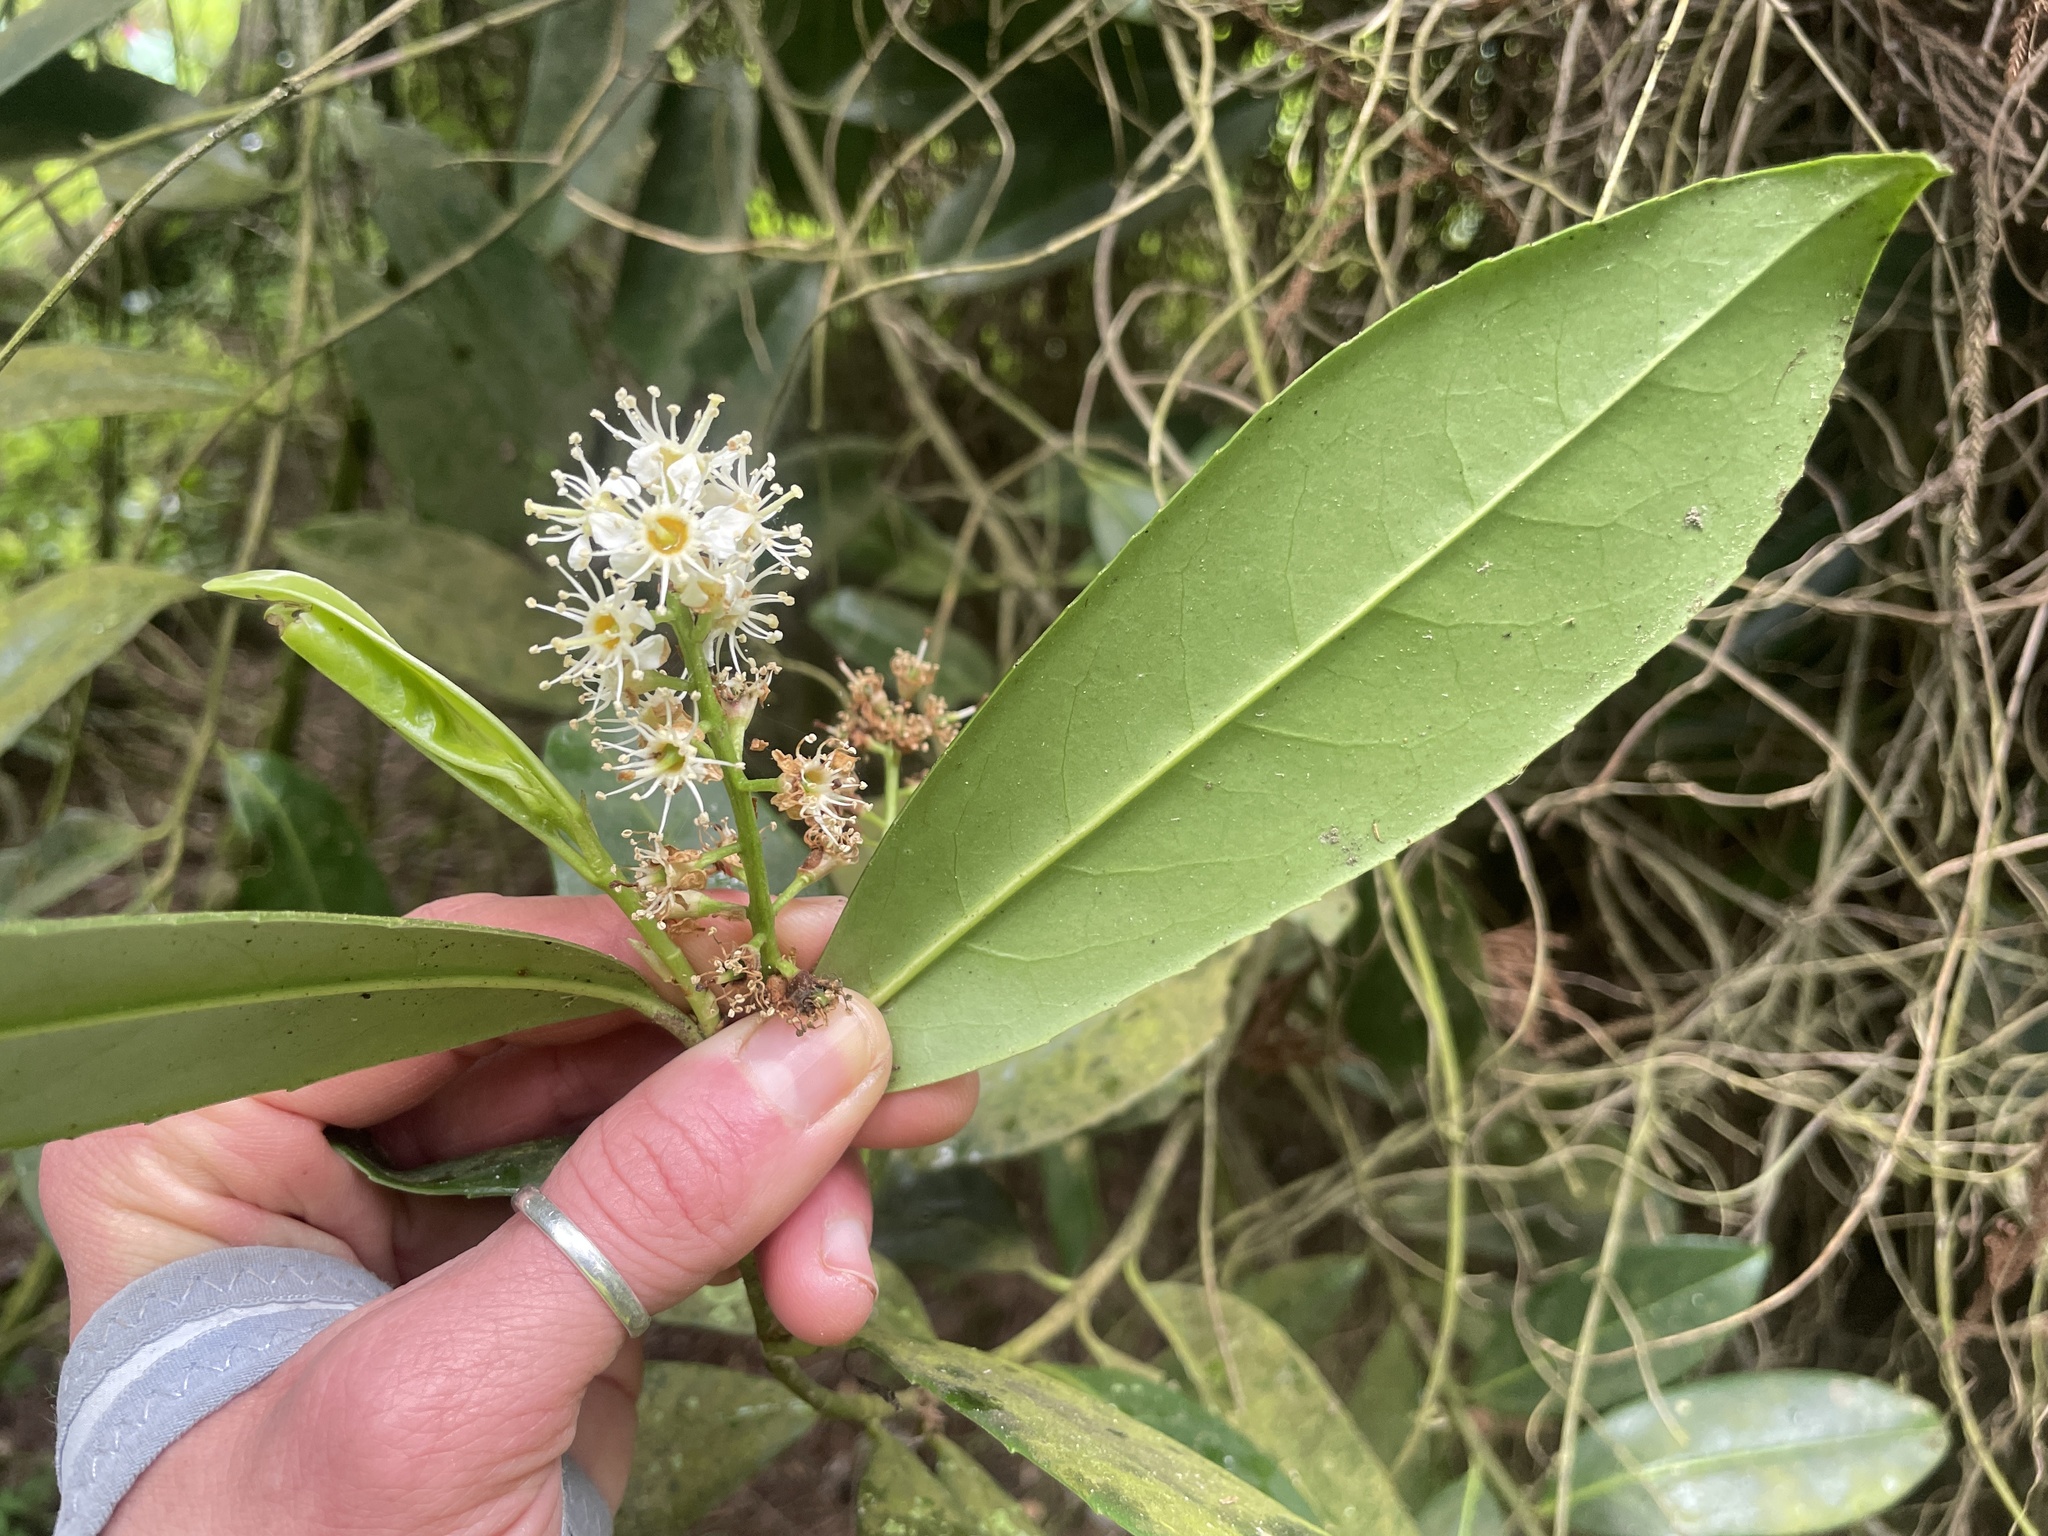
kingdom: Plantae
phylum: Tracheophyta
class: Magnoliopsida
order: Rosales
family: Rosaceae
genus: Prunus
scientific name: Prunus laurocerasus
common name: Cherry laurel
